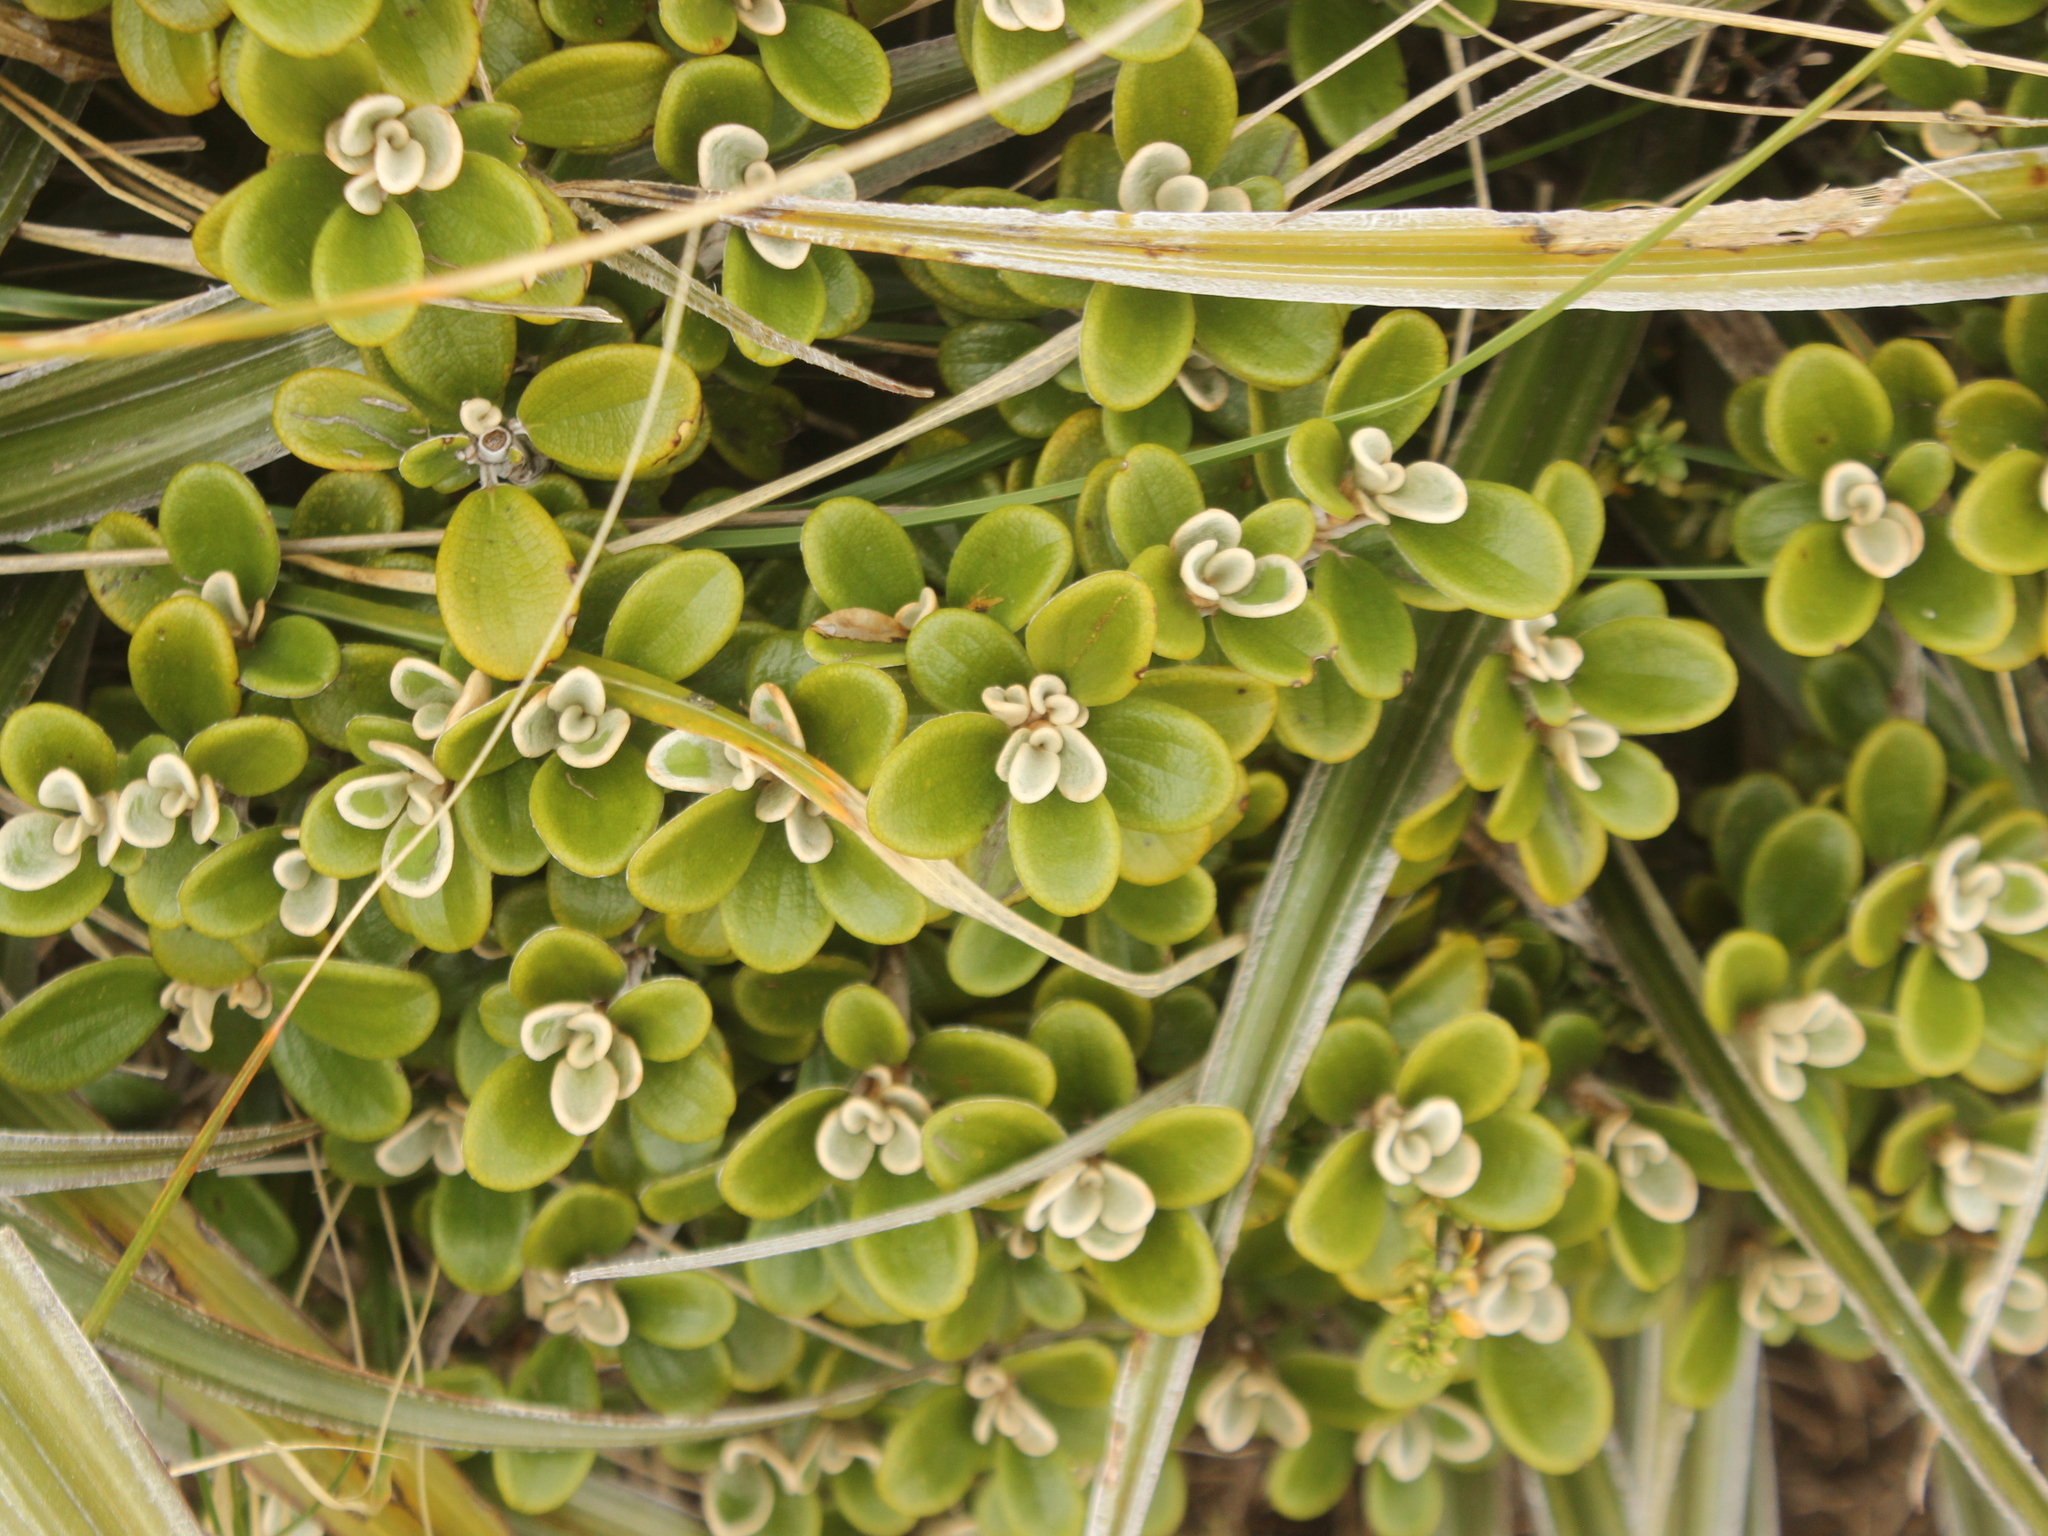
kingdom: Plantae
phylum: Tracheophyta
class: Magnoliopsida
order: Asterales
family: Asteraceae
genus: Brachyglottis
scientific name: Brachyglottis bidwillii
